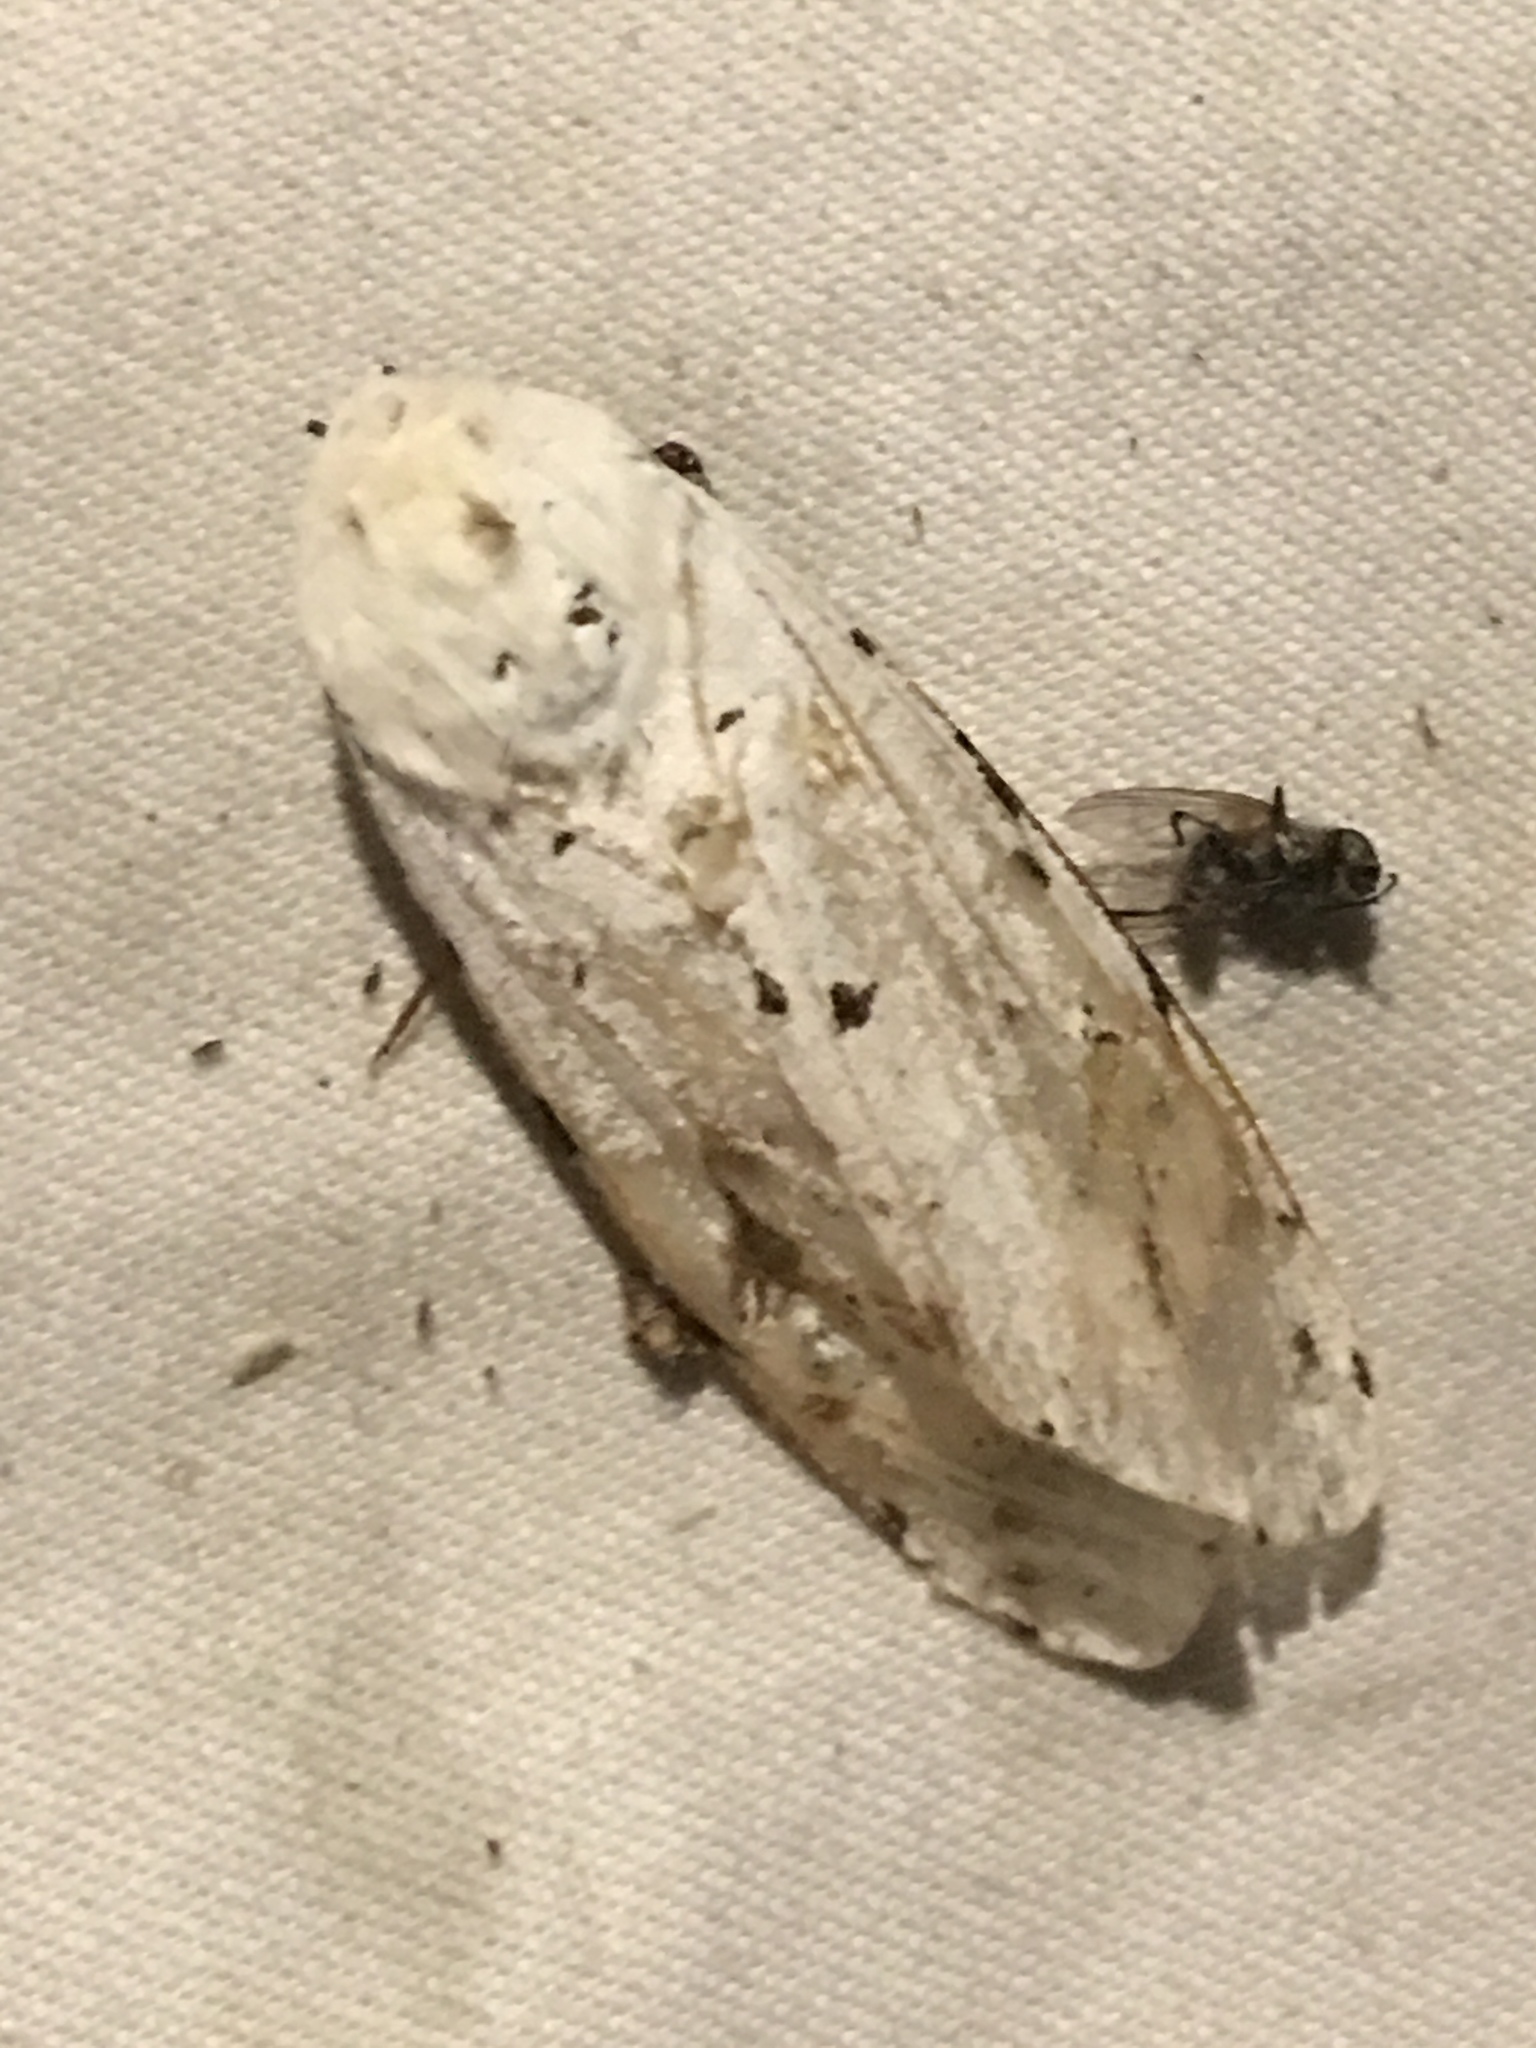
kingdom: Animalia
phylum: Arthropoda
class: Insecta
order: Lepidoptera
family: Erebidae
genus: Estigmene
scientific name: Estigmene acrea
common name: Salt marsh moth
